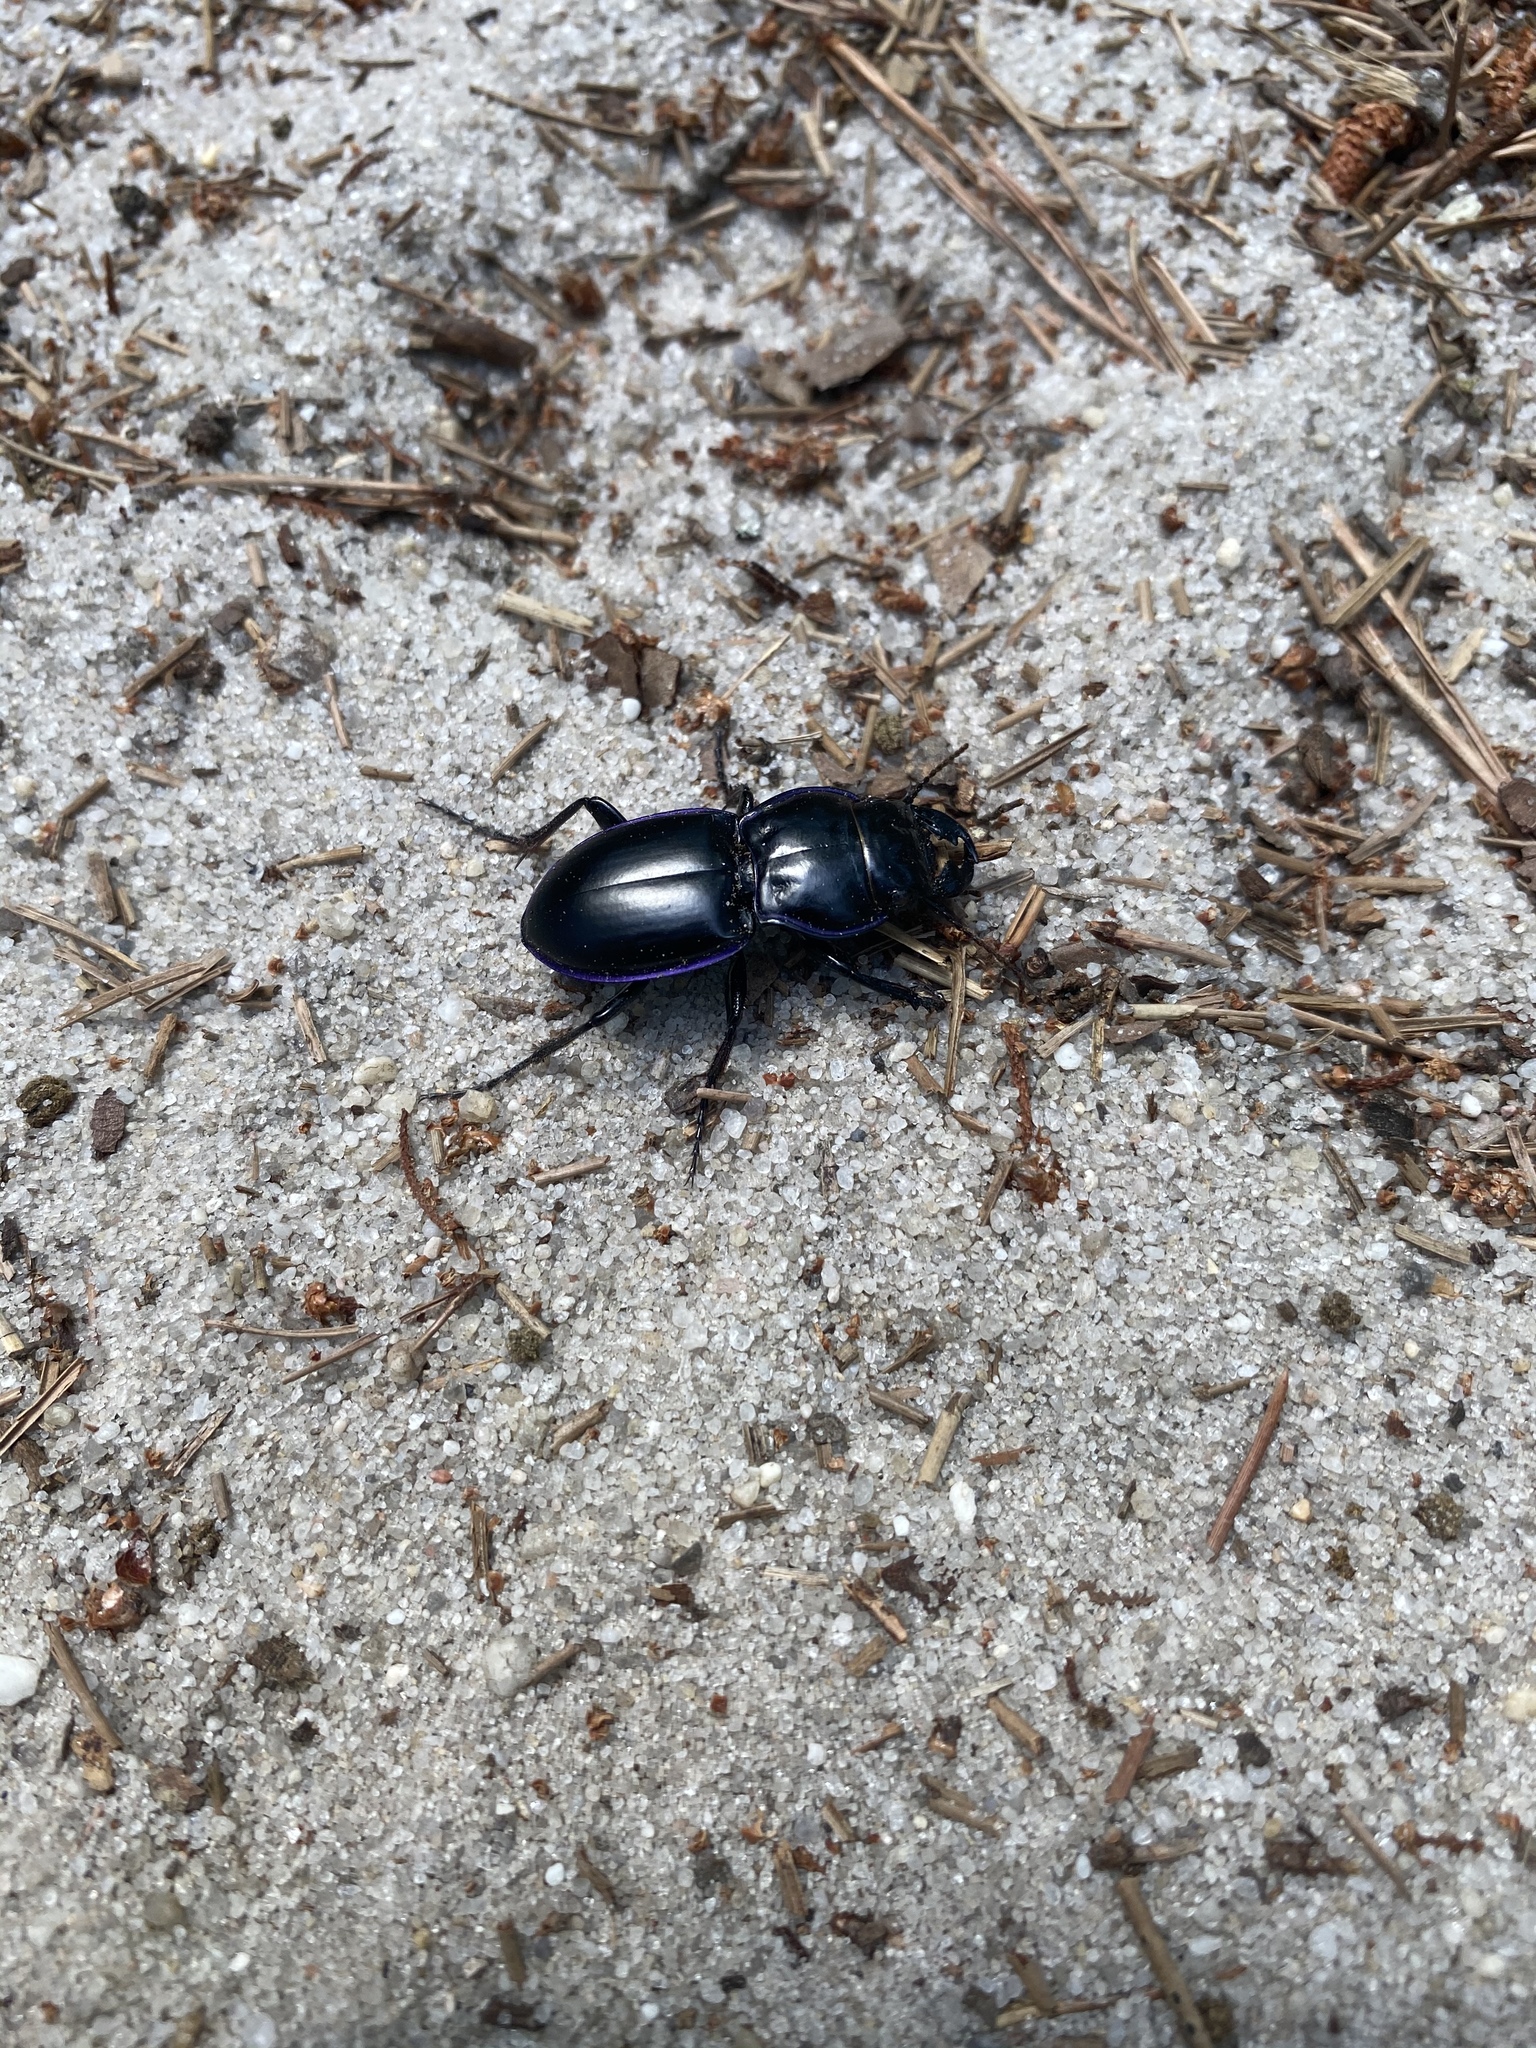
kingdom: Animalia
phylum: Arthropoda
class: Insecta
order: Coleoptera
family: Carabidae
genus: Pasimachus
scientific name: Pasimachus elongatus
